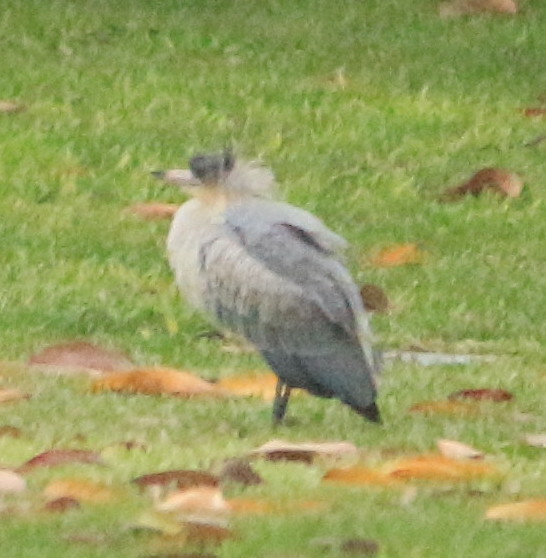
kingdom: Animalia
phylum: Chordata
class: Aves
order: Pelecaniformes
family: Ardeidae
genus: Syrigma
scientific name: Syrigma sibilatrix
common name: Whistling heron
